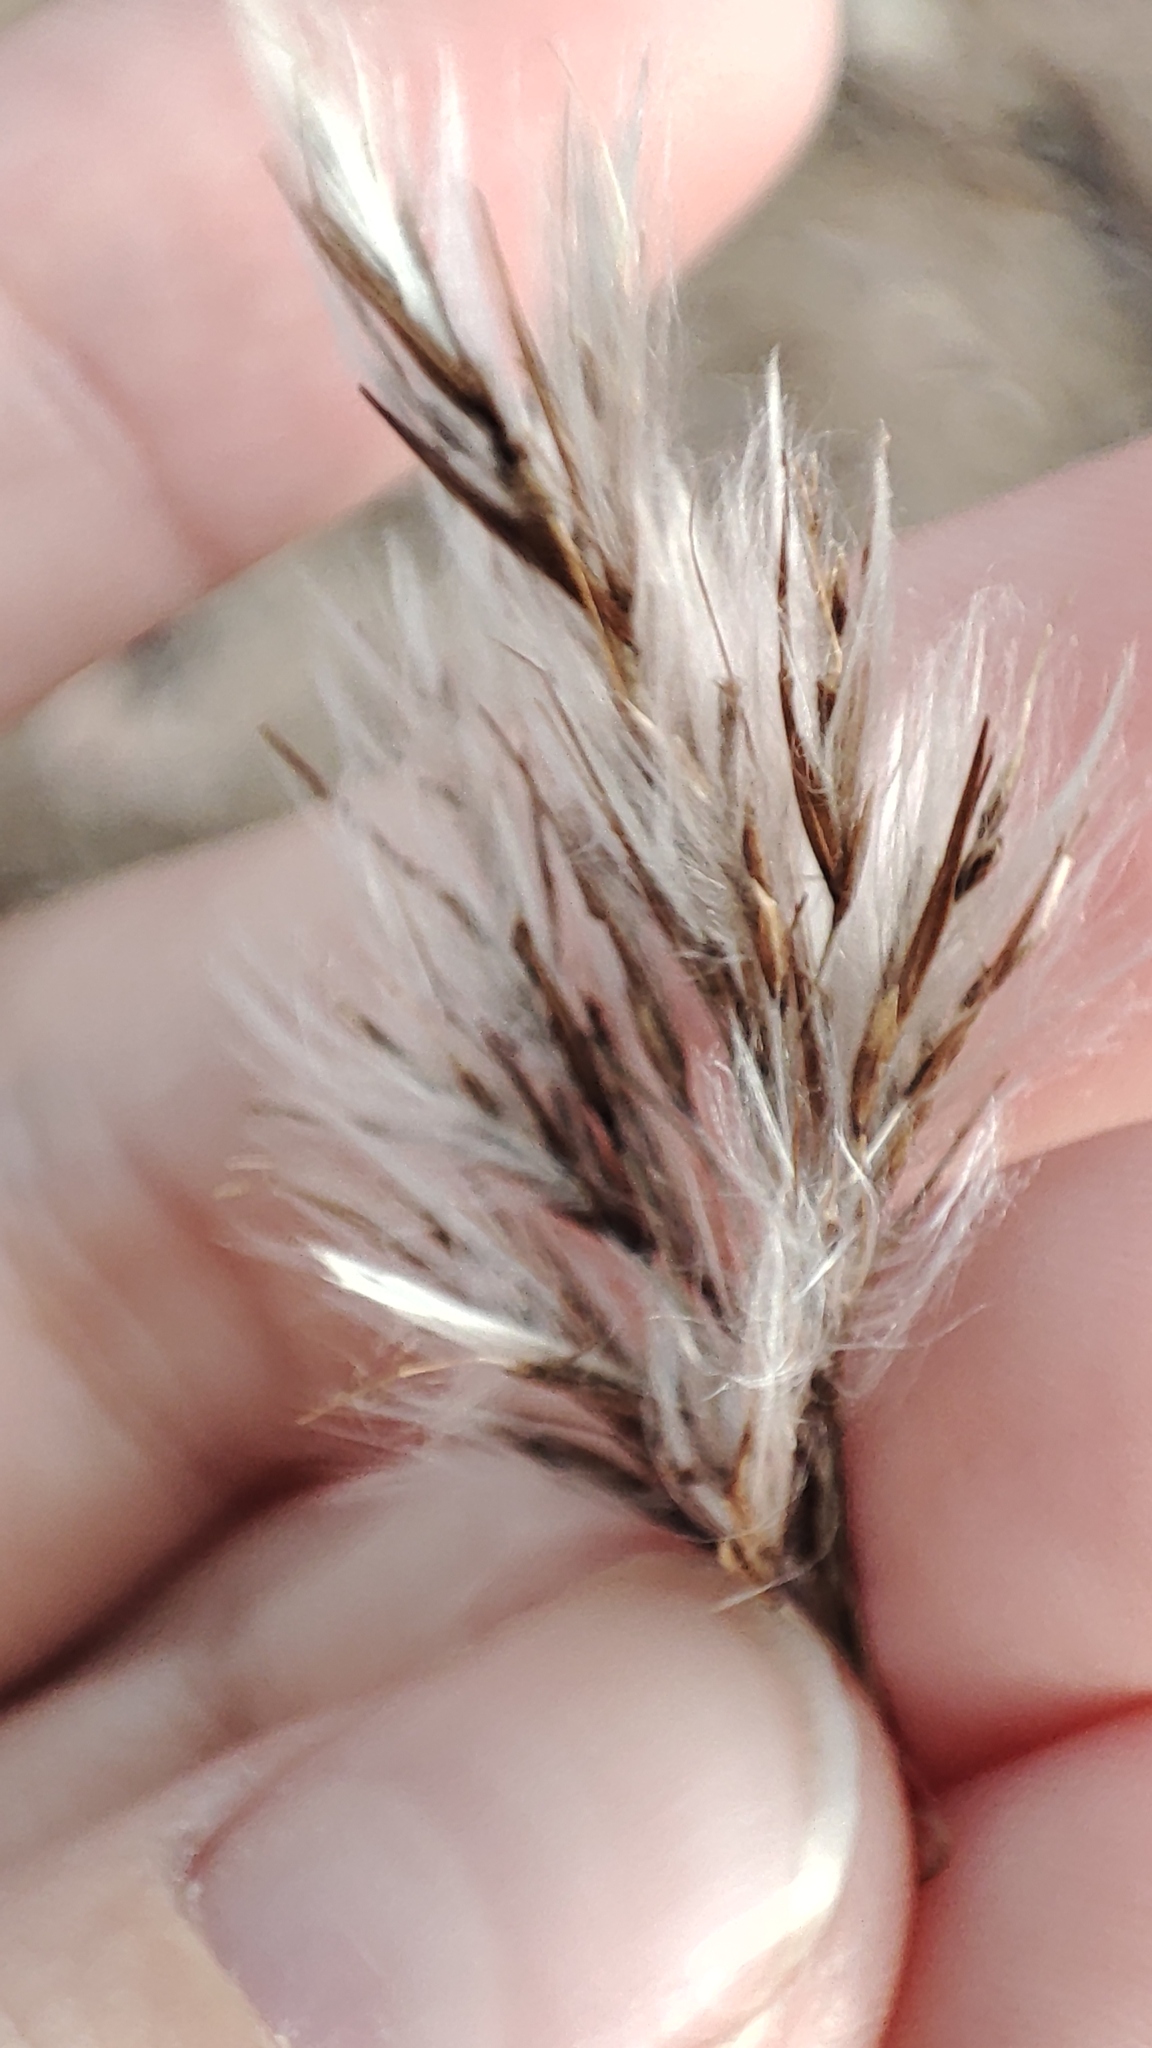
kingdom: Plantae
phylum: Tracheophyta
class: Liliopsida
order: Poales
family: Poaceae
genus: Phragmites
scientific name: Phragmites australis
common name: Common reed
